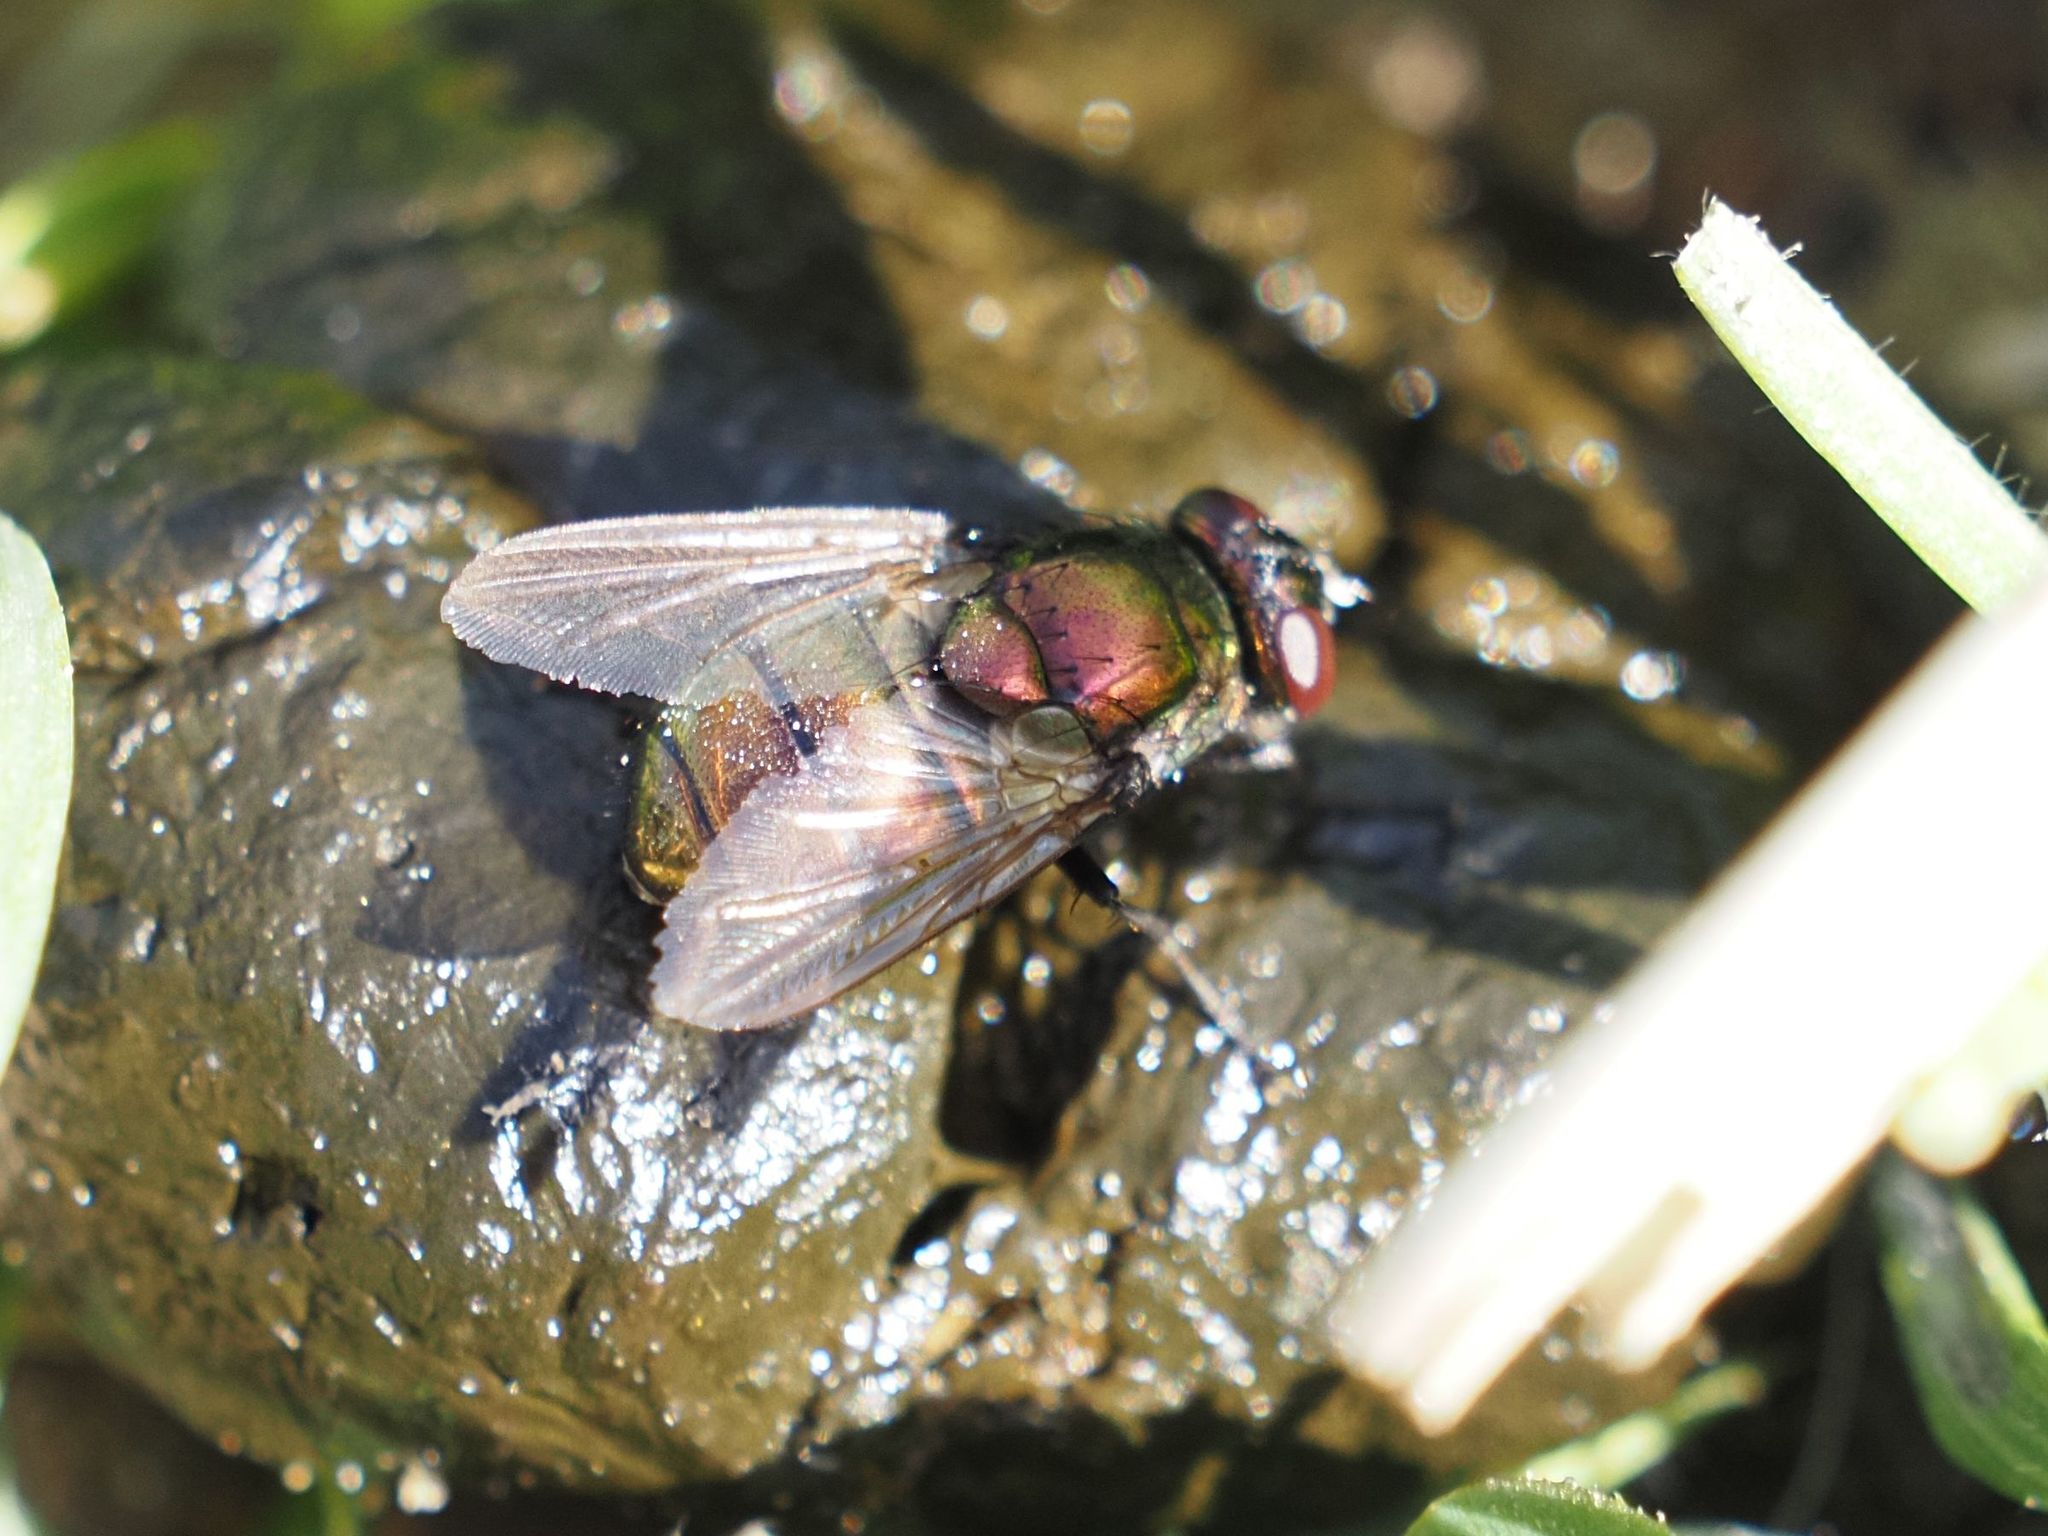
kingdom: Animalia
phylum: Arthropoda
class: Insecta
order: Diptera
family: Muscidae
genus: Neomyia
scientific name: Neomyia cornicina
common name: House fly
